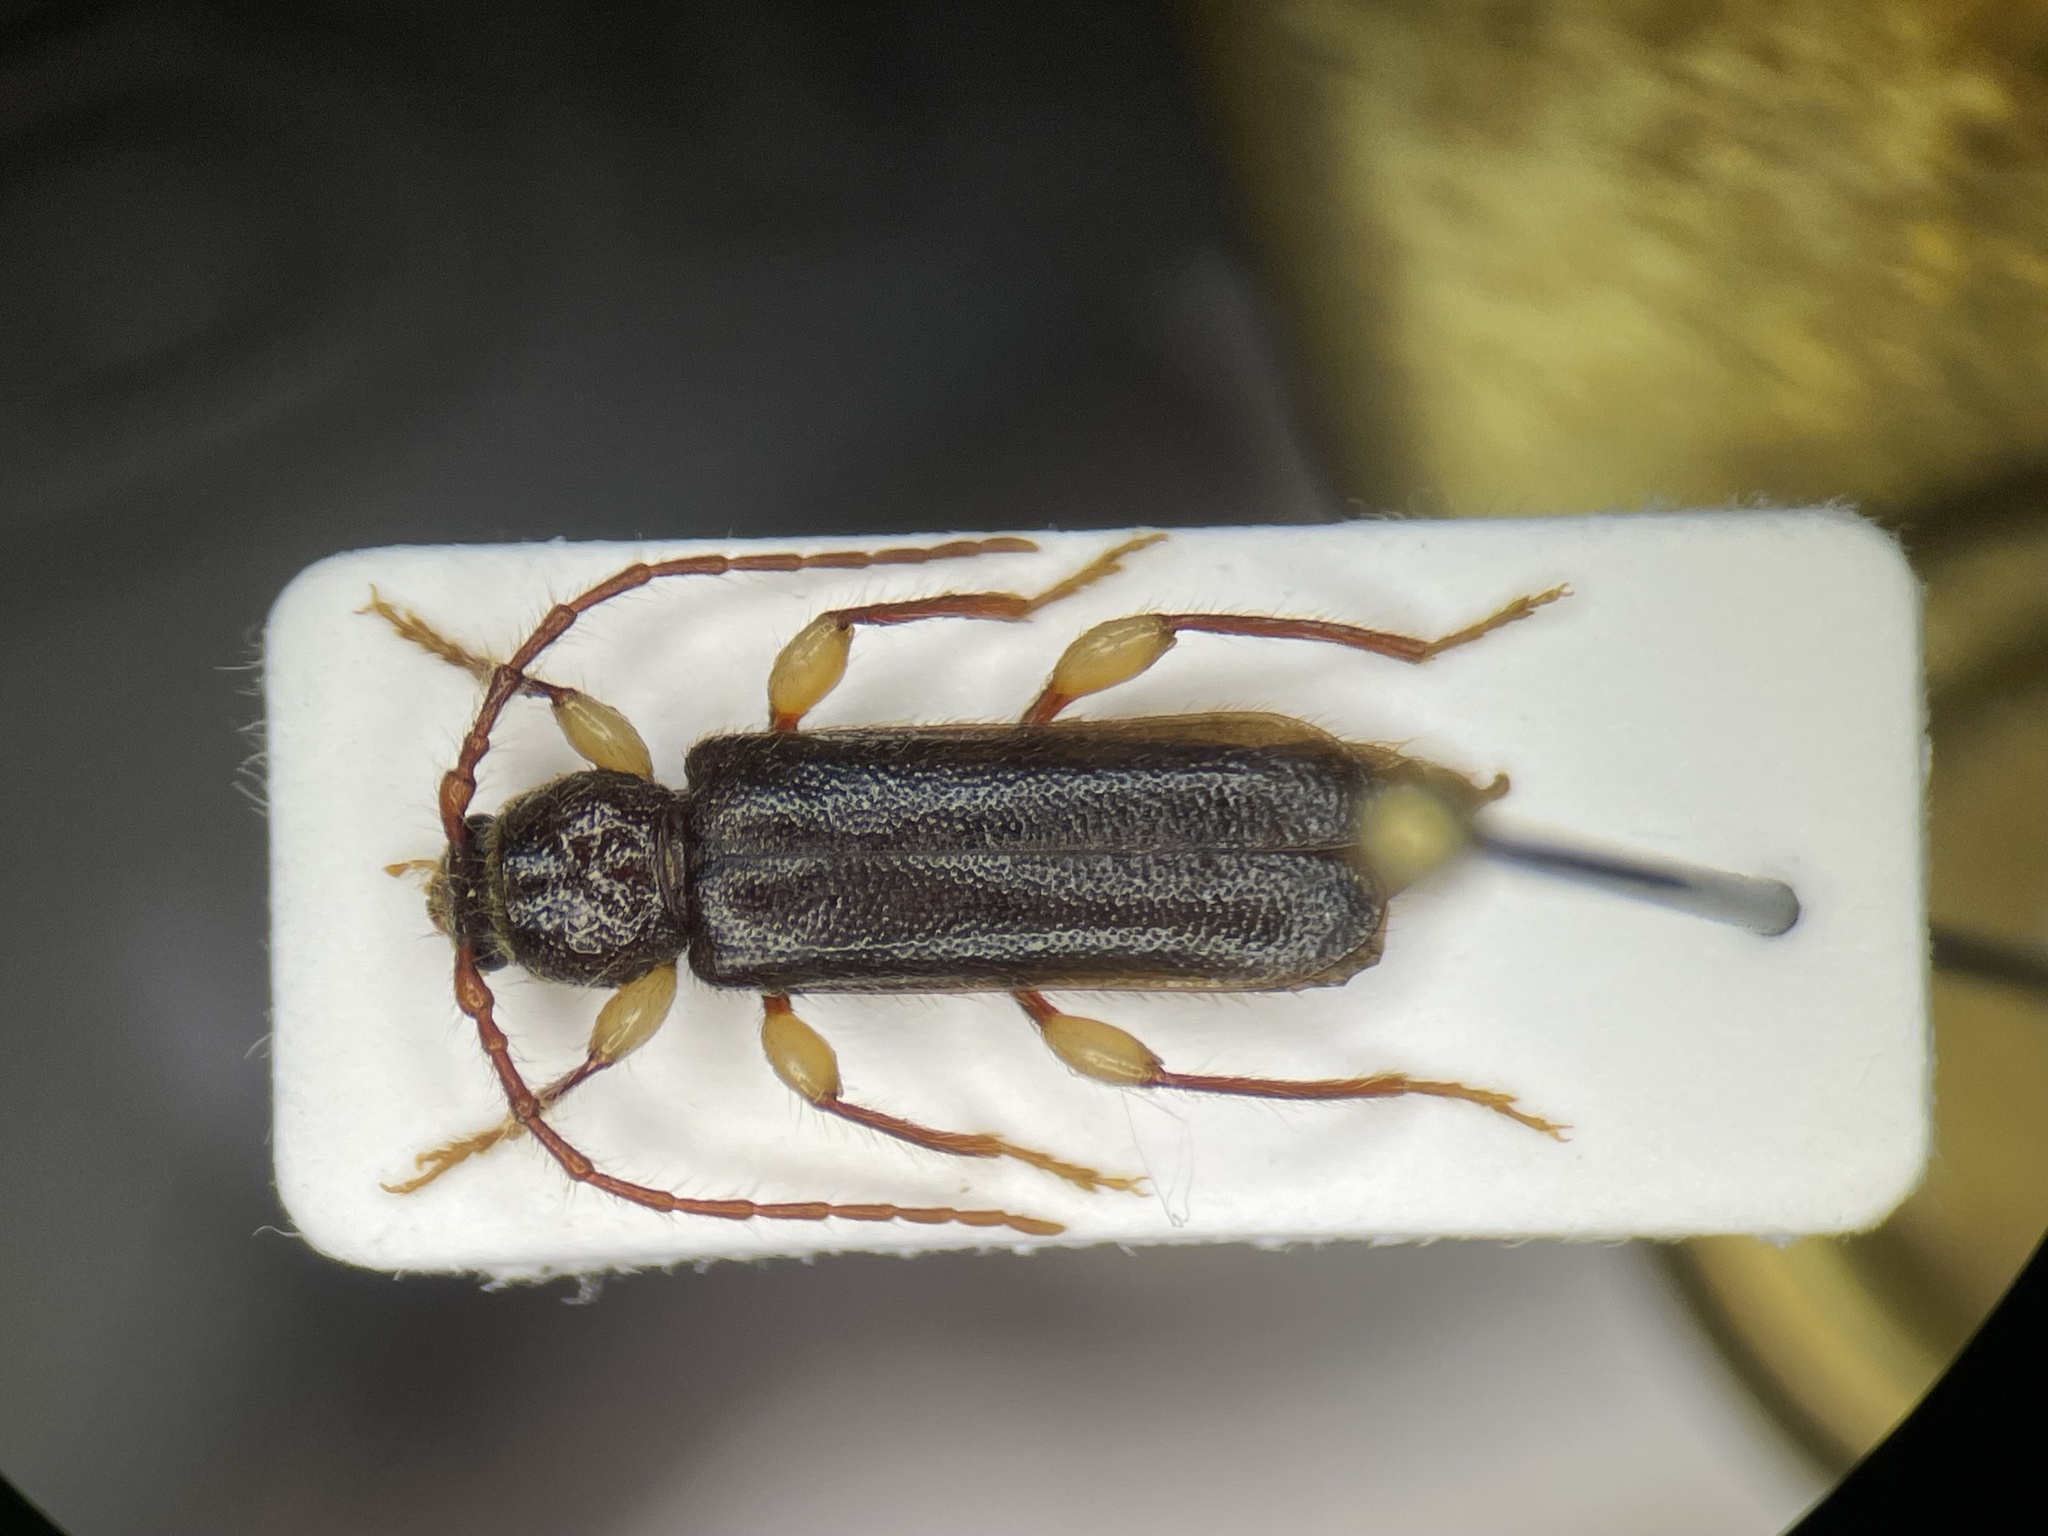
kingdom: Animalia
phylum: Arthropoda
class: Insecta
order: Coleoptera
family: Cerambycidae
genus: Phymatodes
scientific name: Phymatodes aereus
